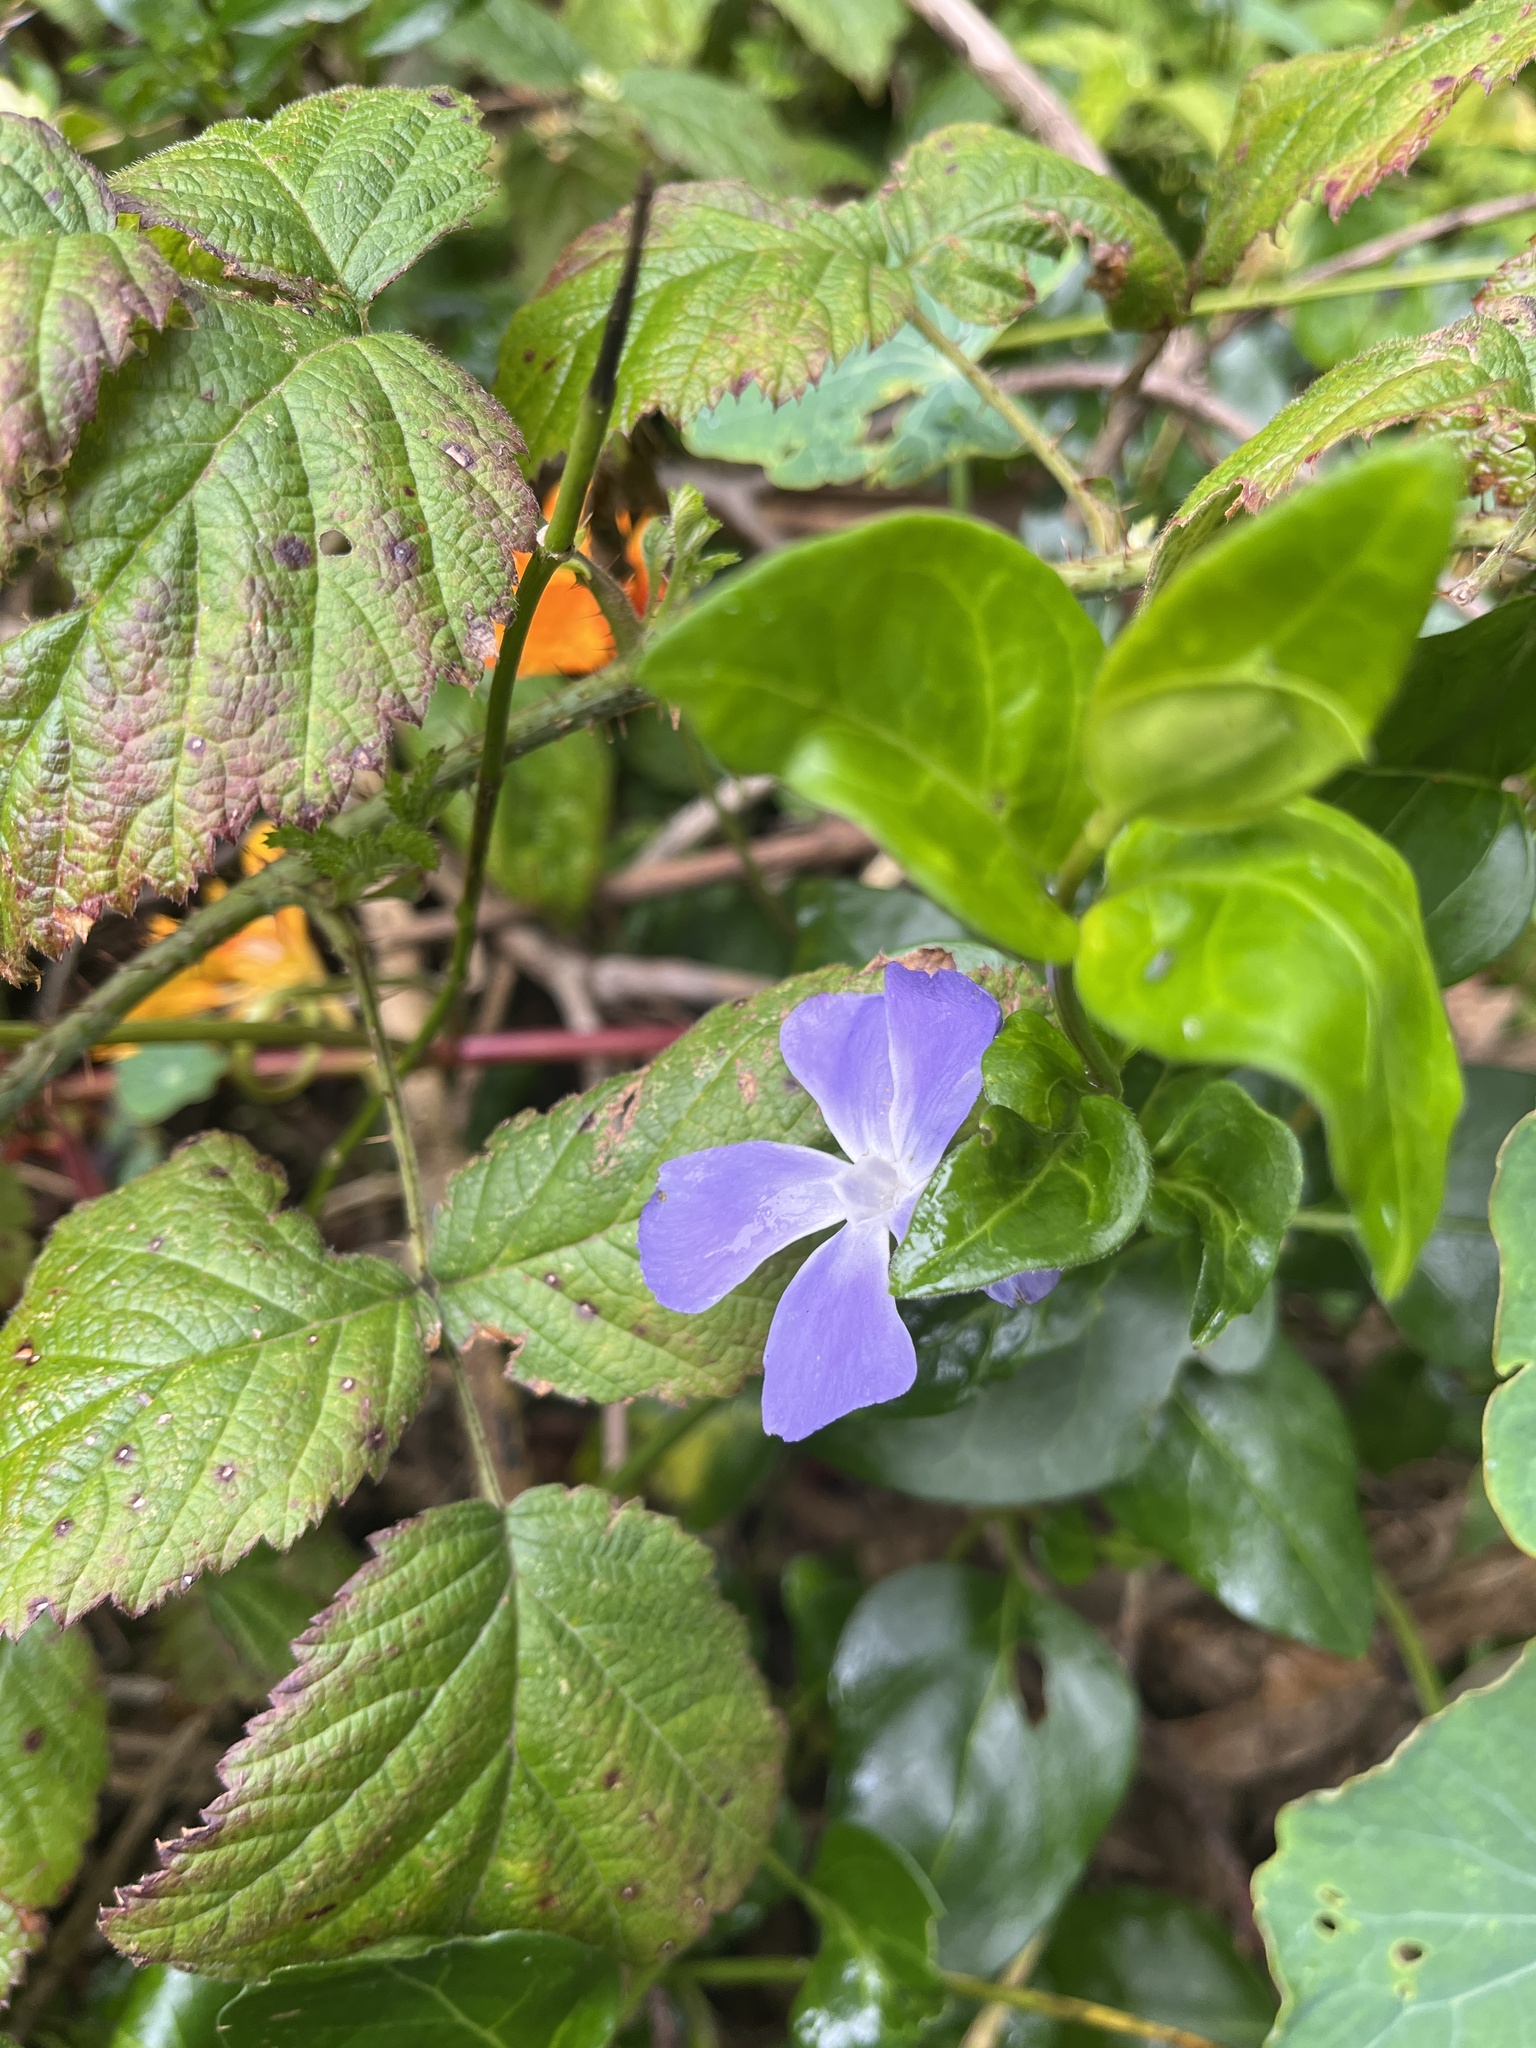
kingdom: Plantae
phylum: Tracheophyta
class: Magnoliopsida
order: Gentianales
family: Apocynaceae
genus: Vinca
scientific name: Vinca major
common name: Greater periwinkle
